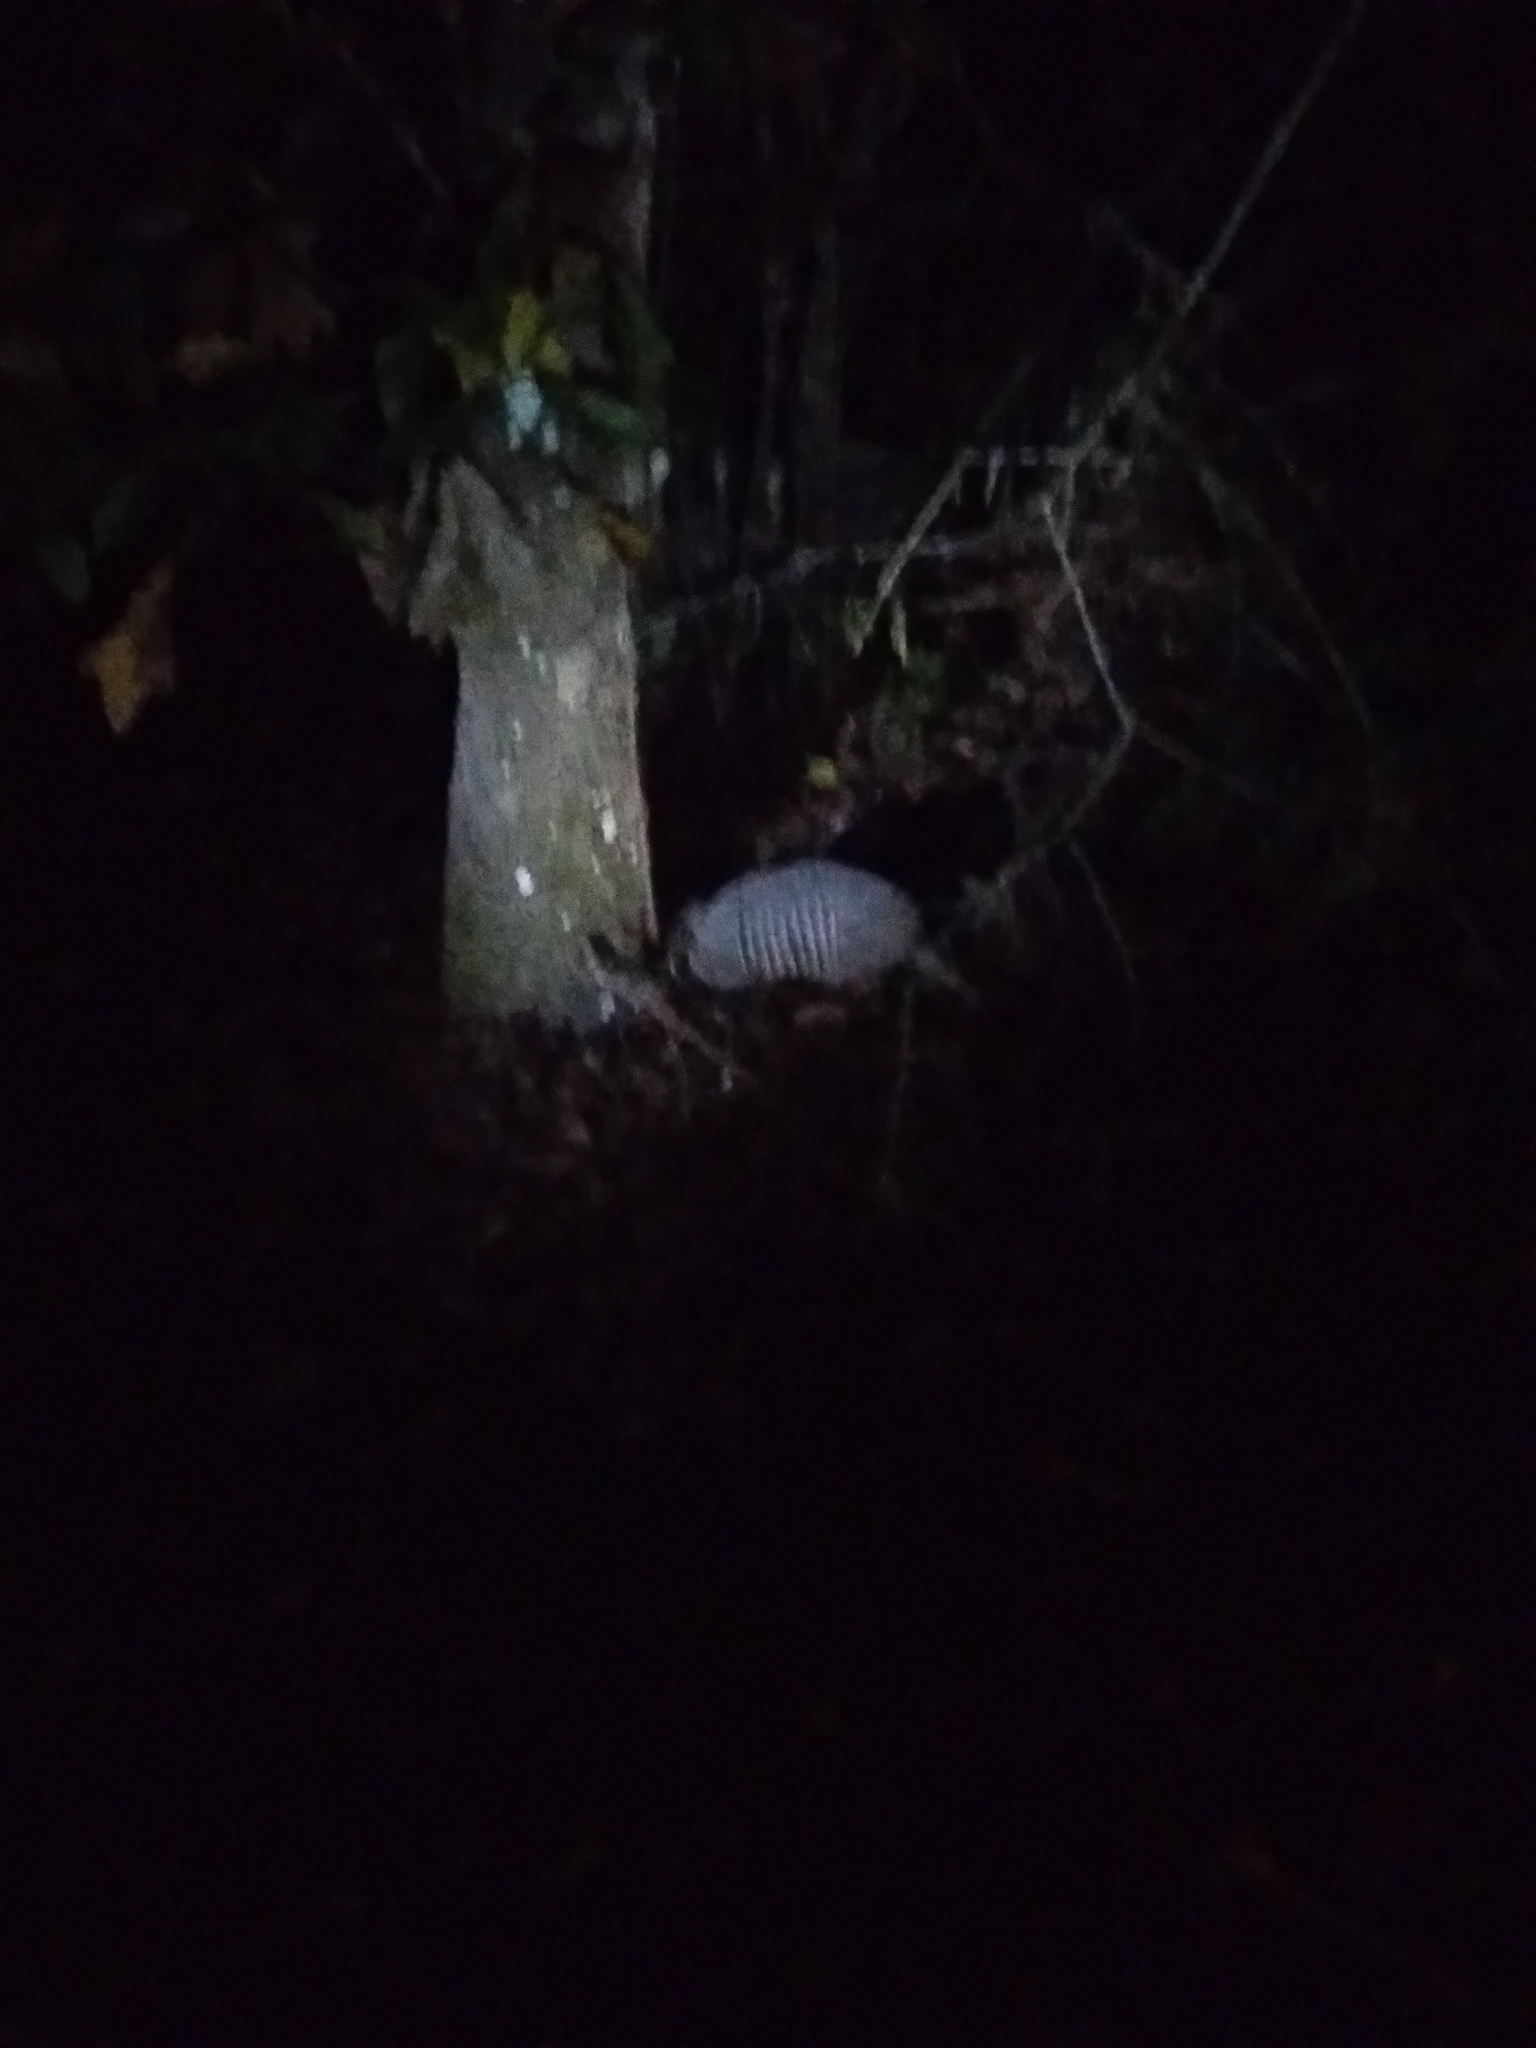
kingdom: Animalia
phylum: Chordata
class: Mammalia
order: Cingulata
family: Dasypodidae
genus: Dasypus
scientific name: Dasypus novemcinctus
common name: Nine-banded armadillo
